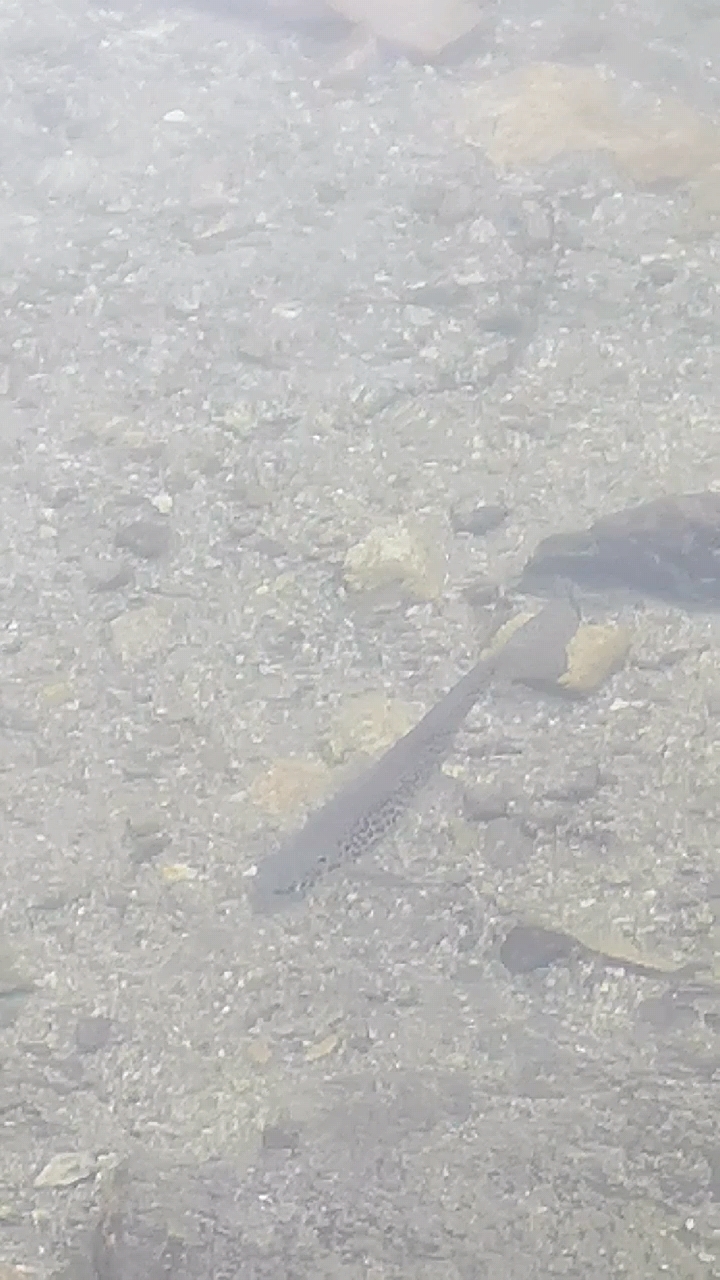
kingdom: Animalia
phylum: Chordata
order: Salmoniformes
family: Salmonidae
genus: Salmo
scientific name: Salmo trutta
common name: Brown trout
